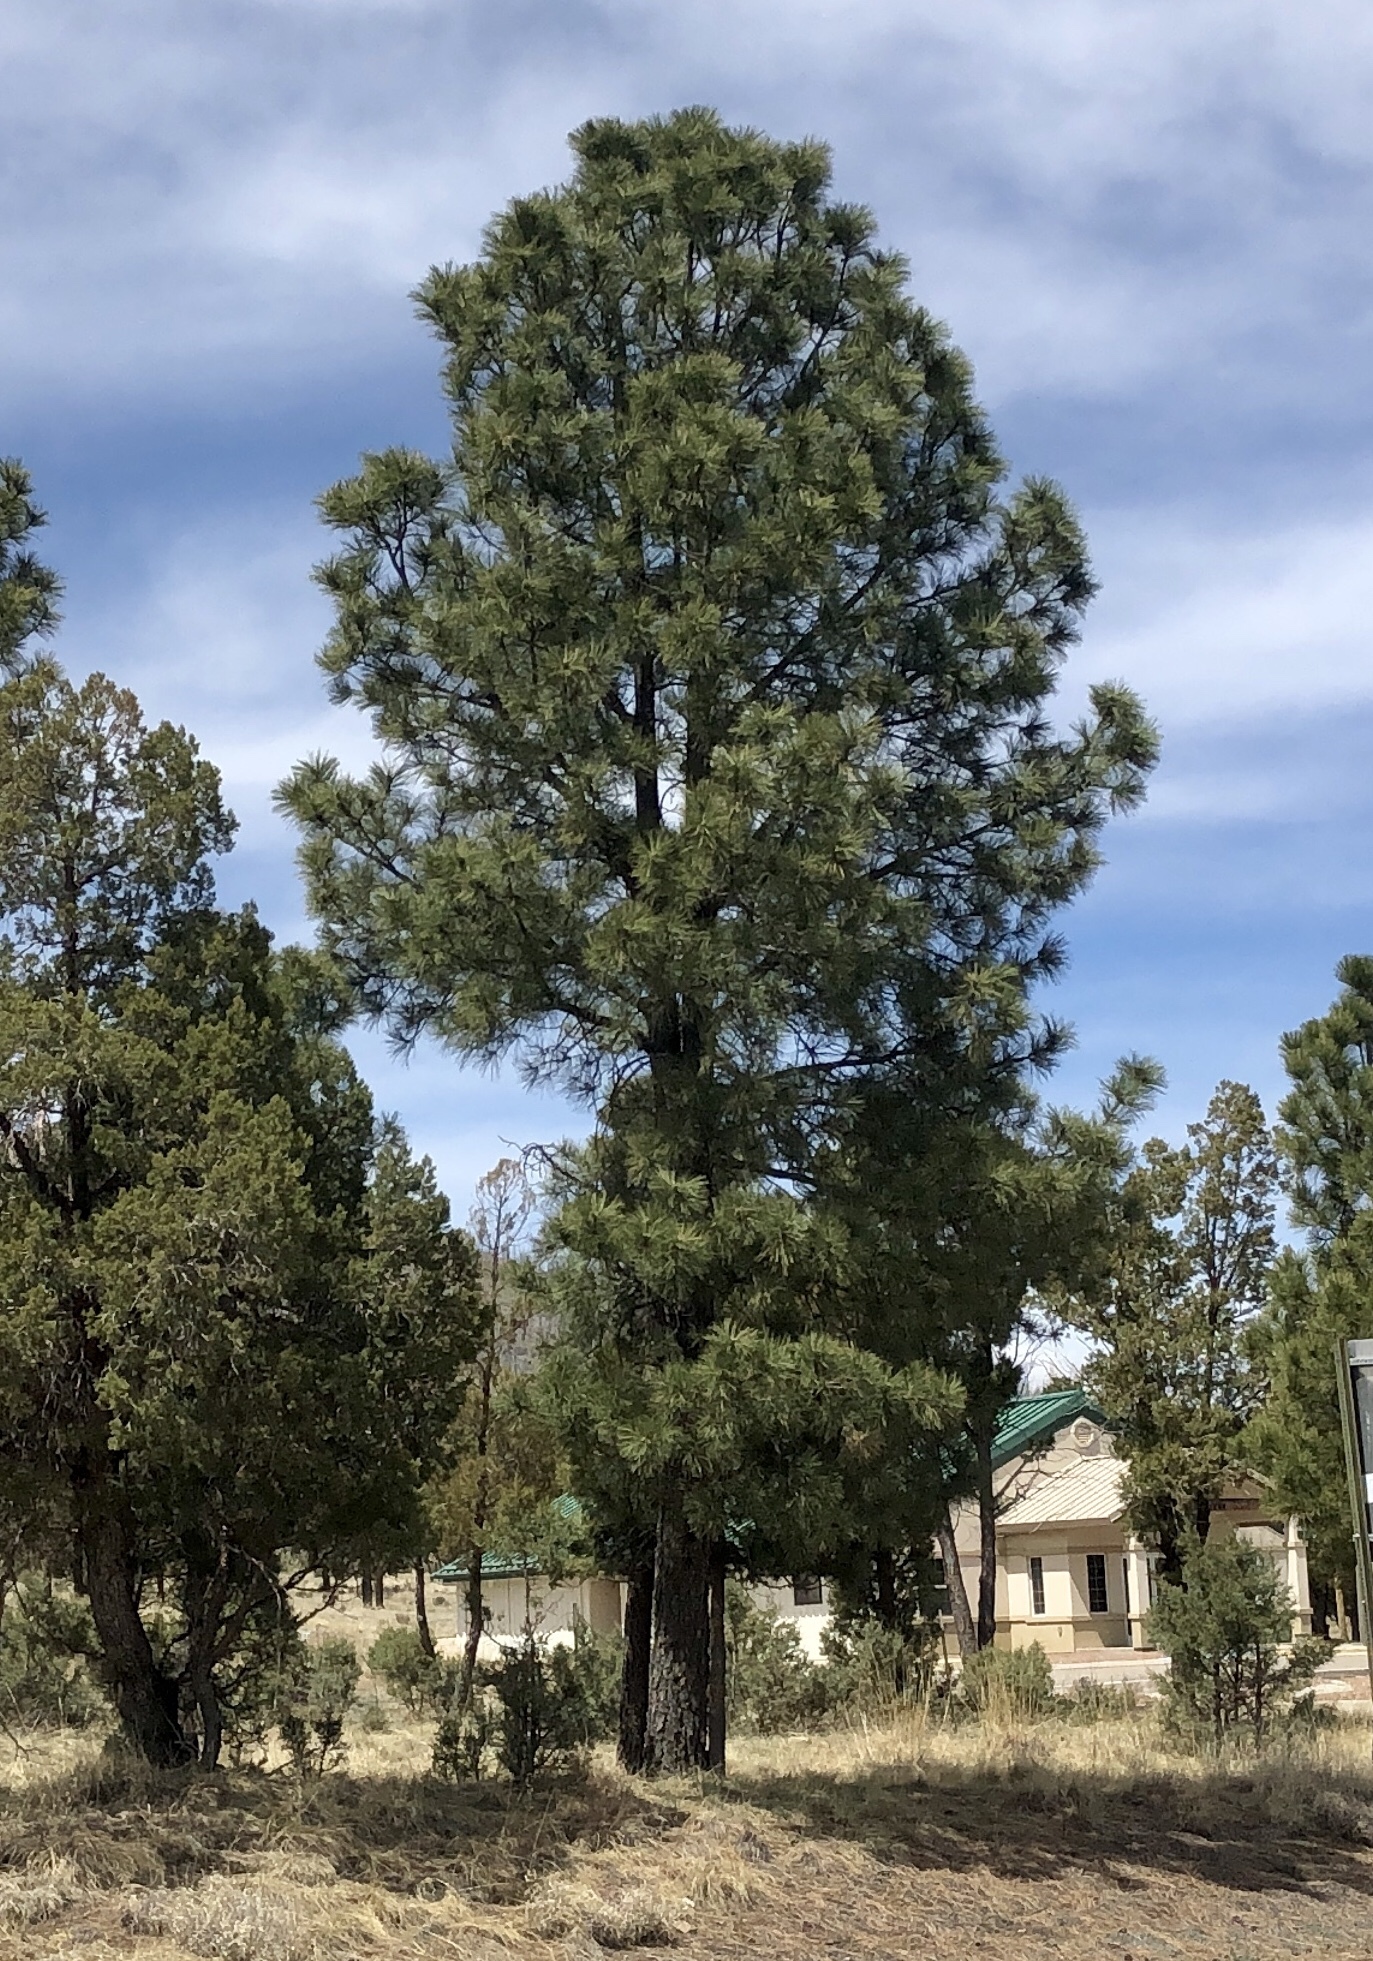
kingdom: Plantae
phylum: Tracheophyta
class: Pinopsida
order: Pinales
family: Pinaceae
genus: Pinus
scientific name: Pinus ponderosa
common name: Western yellow-pine
